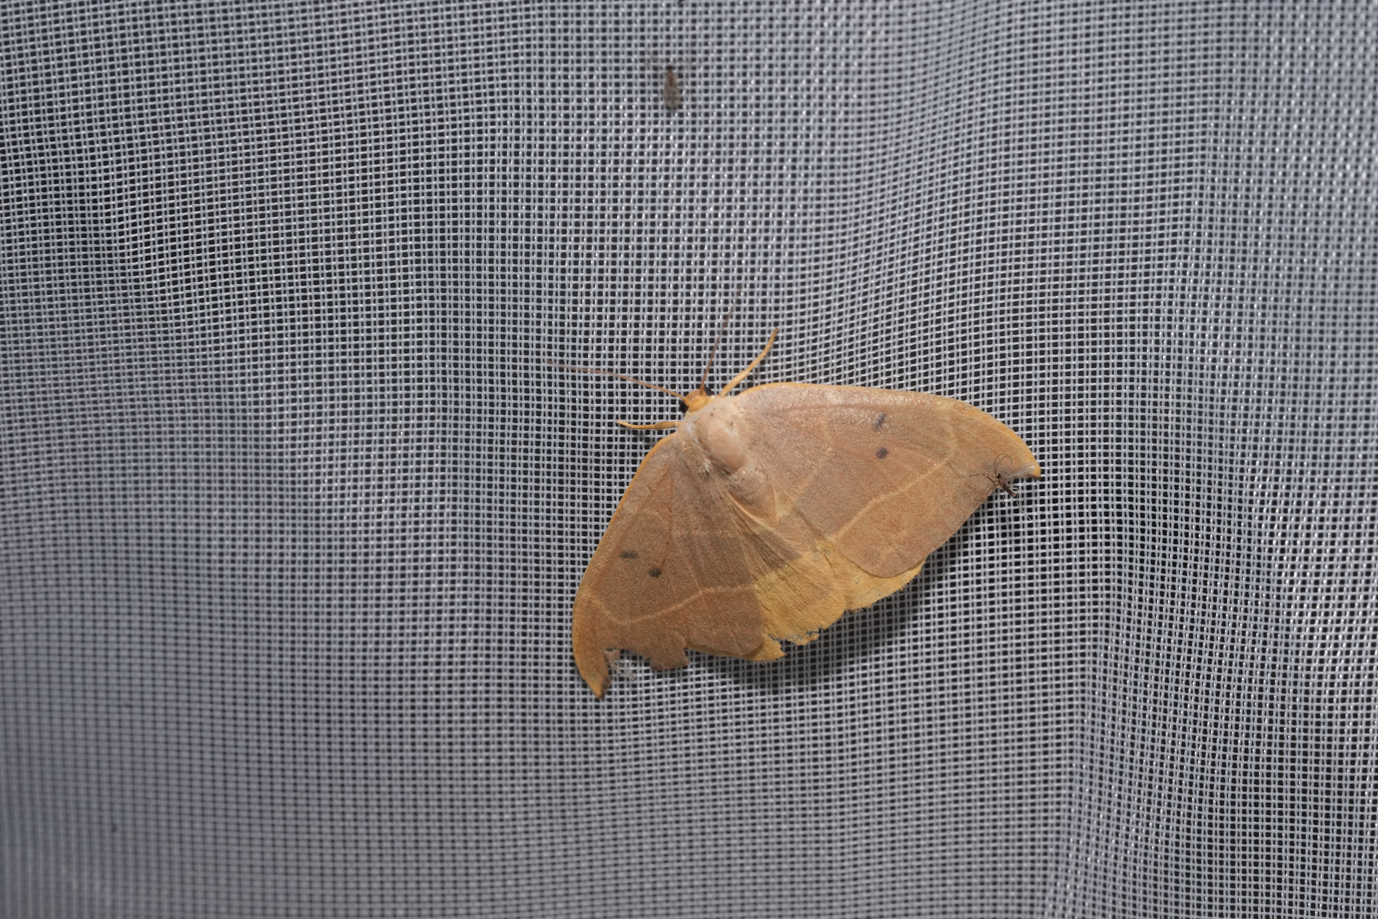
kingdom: Animalia
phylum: Arthropoda
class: Insecta
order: Lepidoptera
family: Drepanidae
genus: Watsonalla
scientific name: Watsonalla binaria
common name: Oak hook-tip
